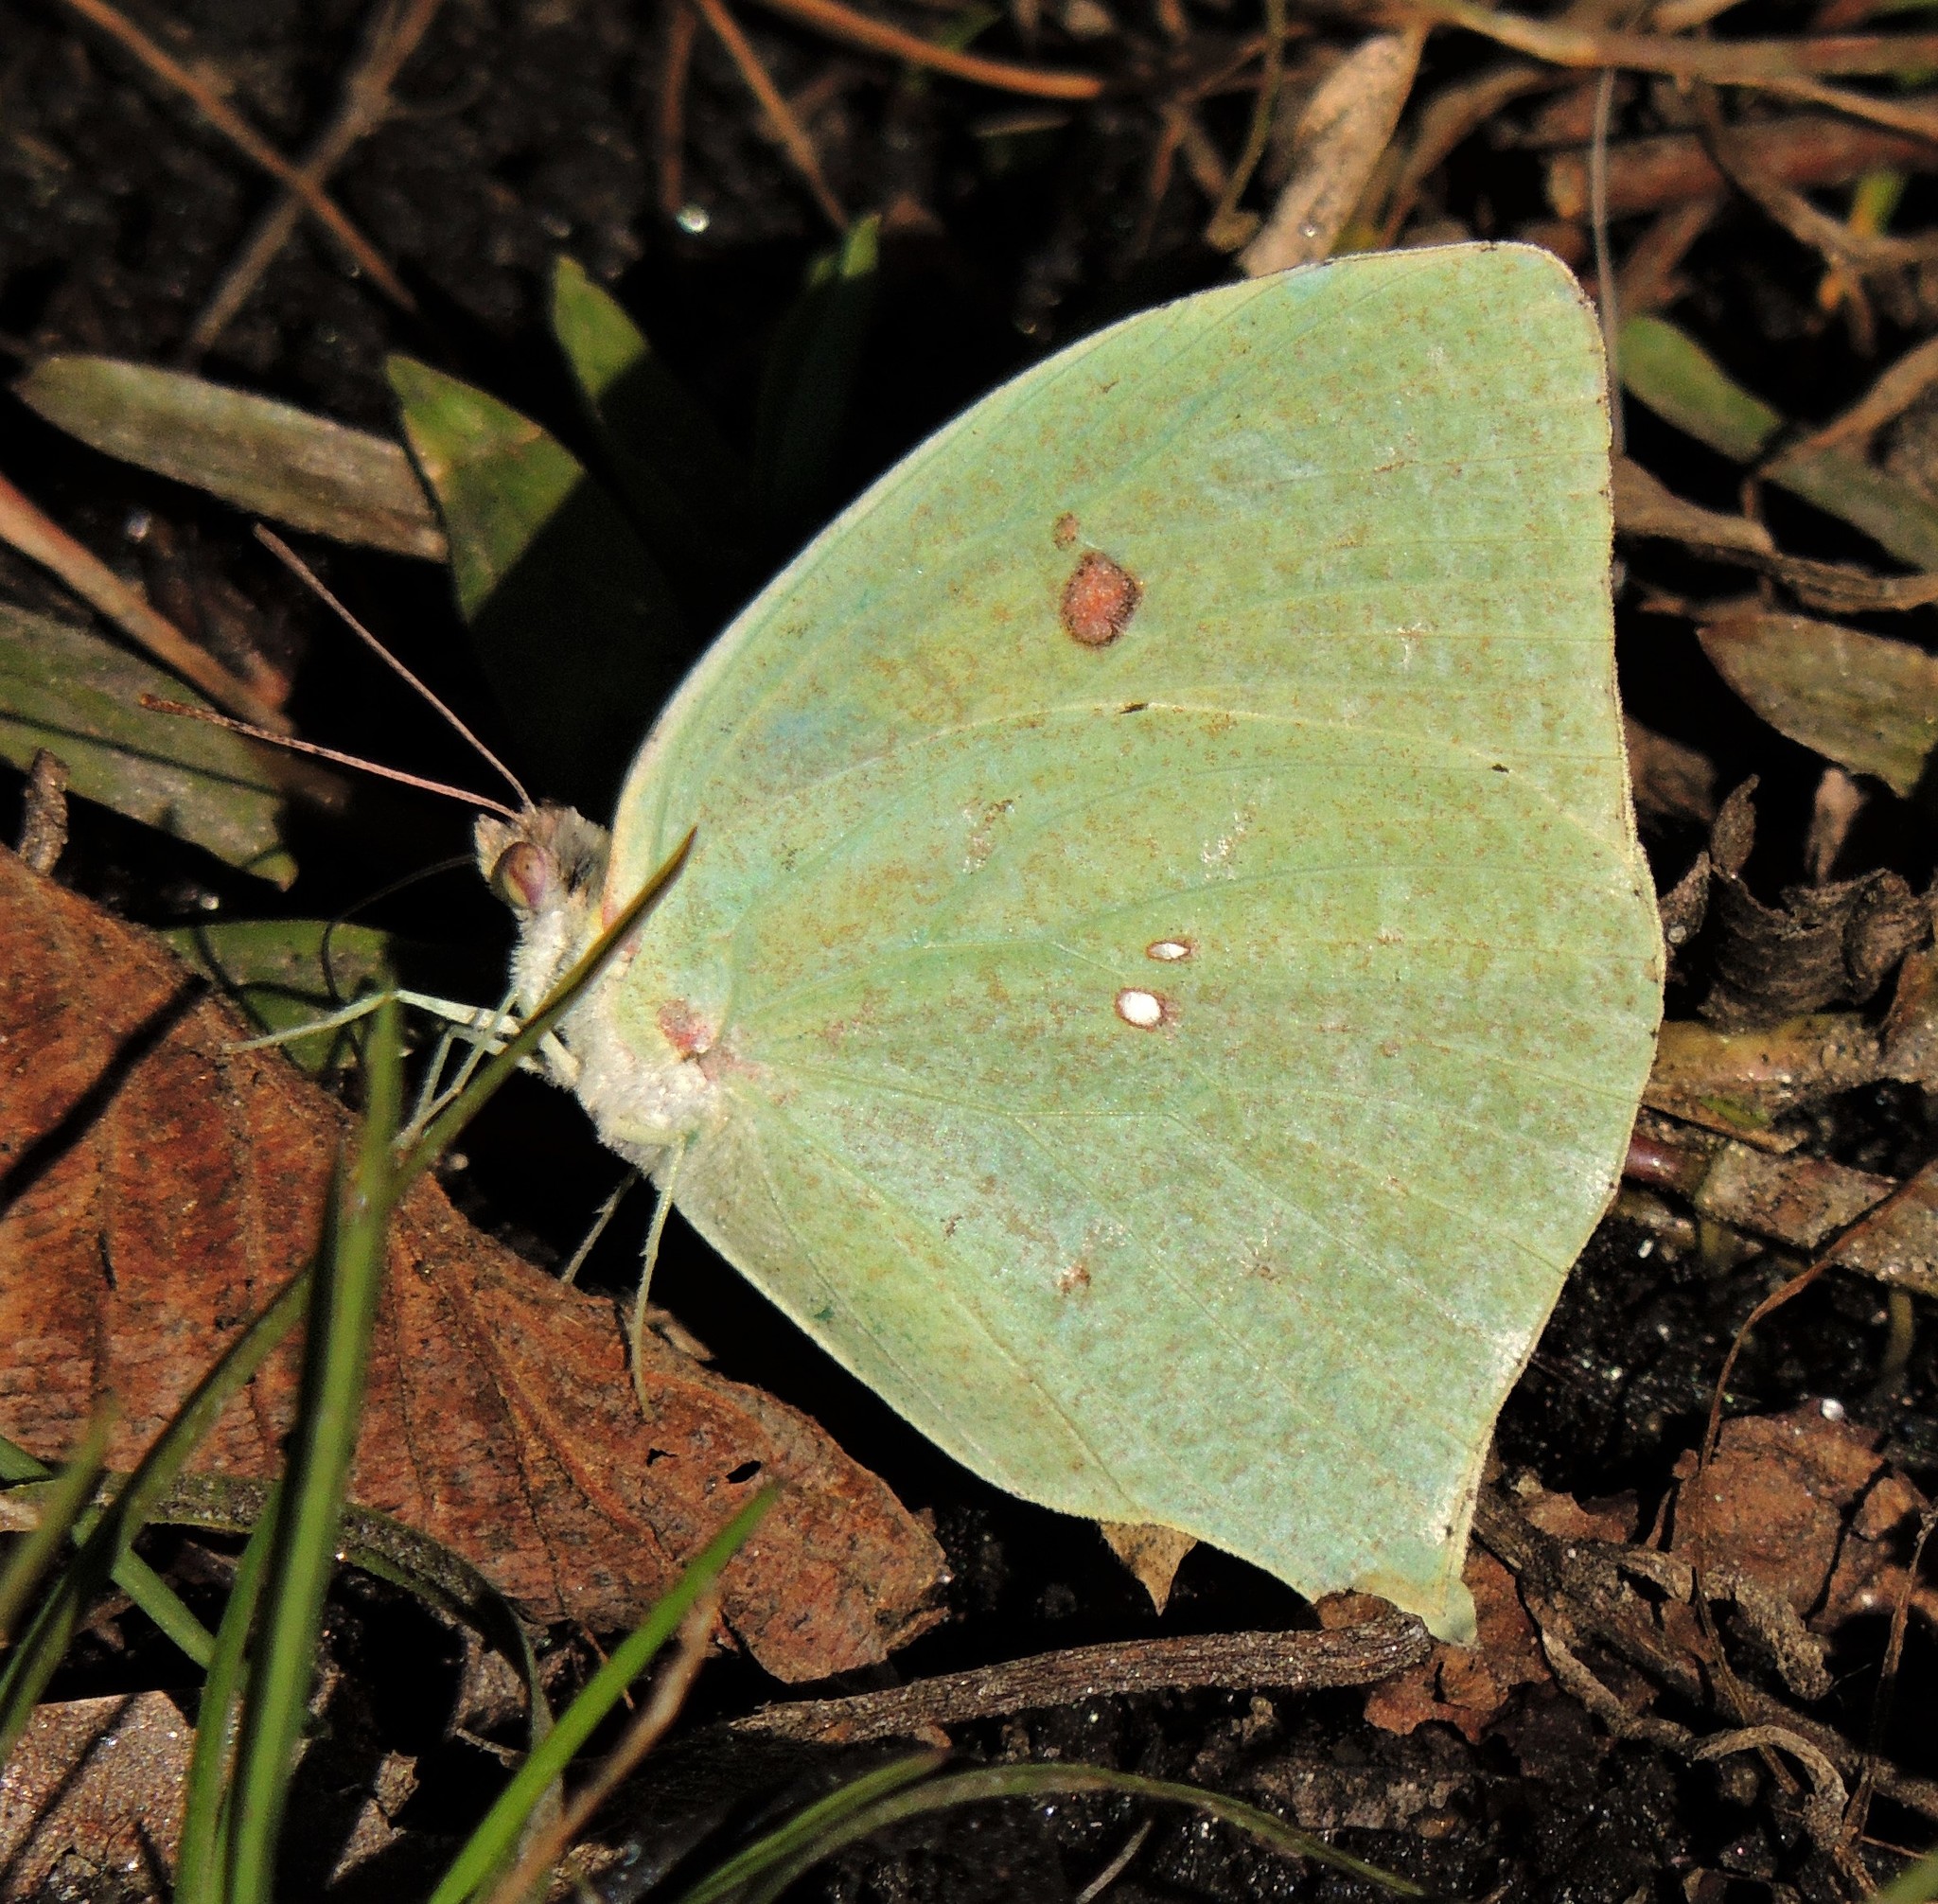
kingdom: Animalia
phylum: Arthropoda
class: Insecta
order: Lepidoptera
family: Pieridae
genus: Phoebis
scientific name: Phoebis neocypris
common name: Tailed sulphur
